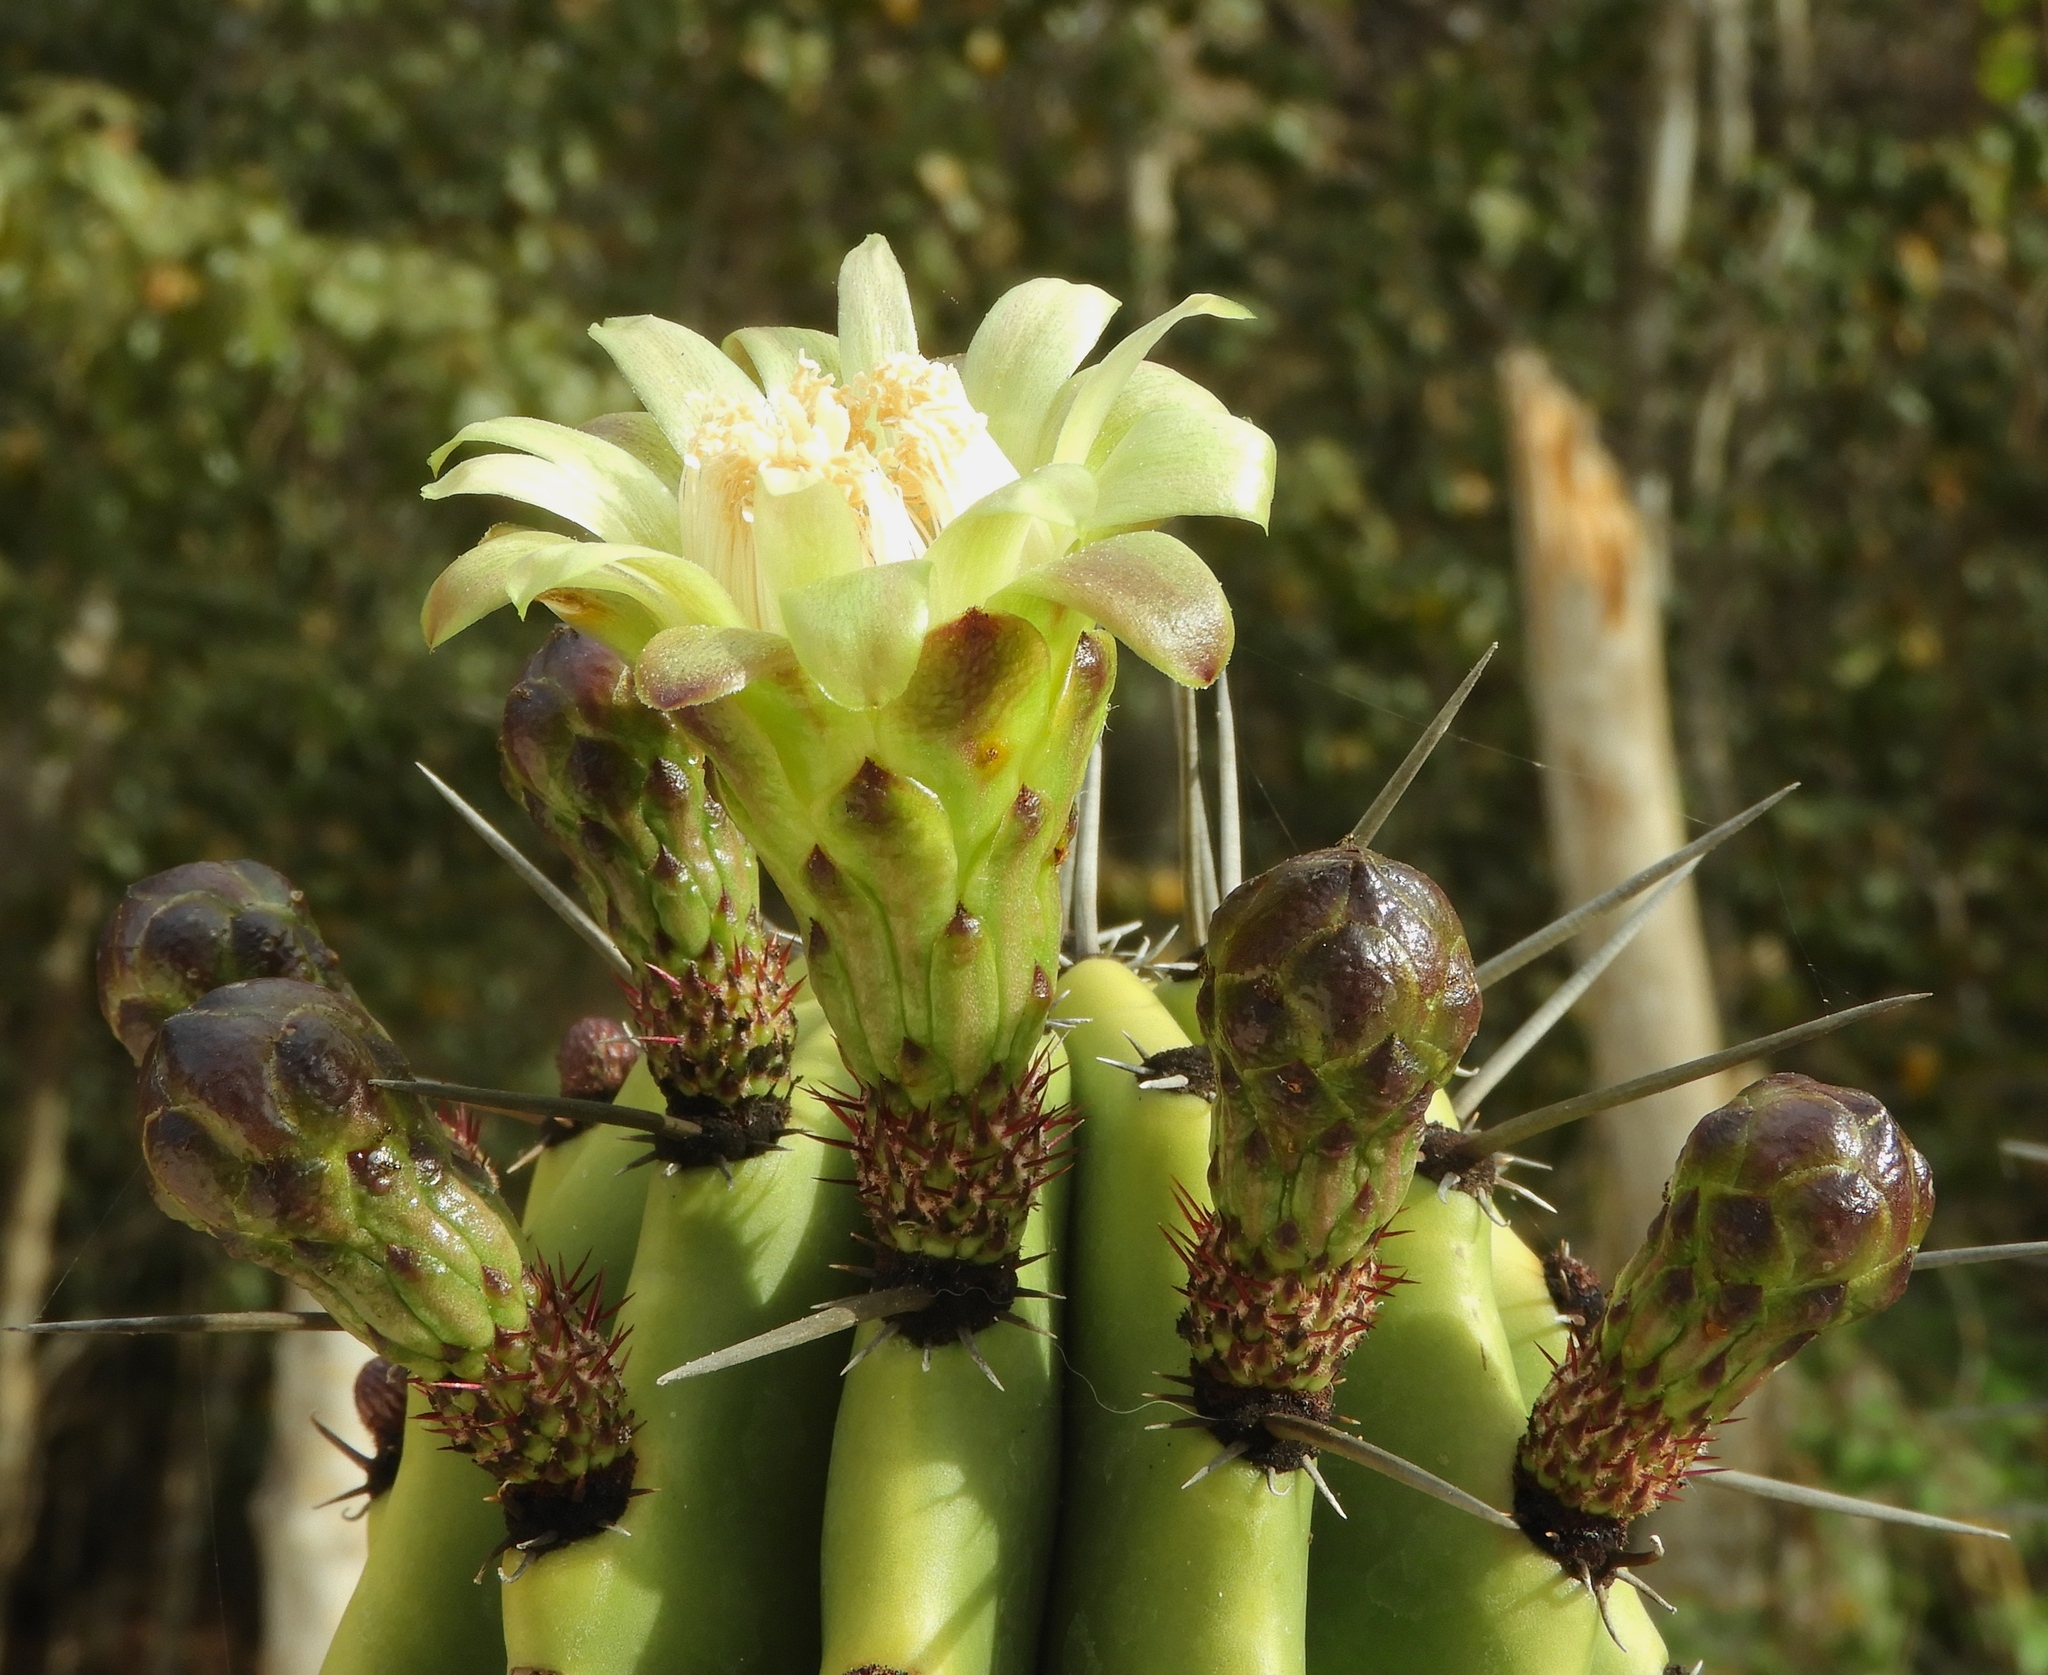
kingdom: Plantae
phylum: Tracheophyta
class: Magnoliopsida
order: Caryophyllales
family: Cactaceae
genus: Stenocereus
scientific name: Stenocereus martinezii
